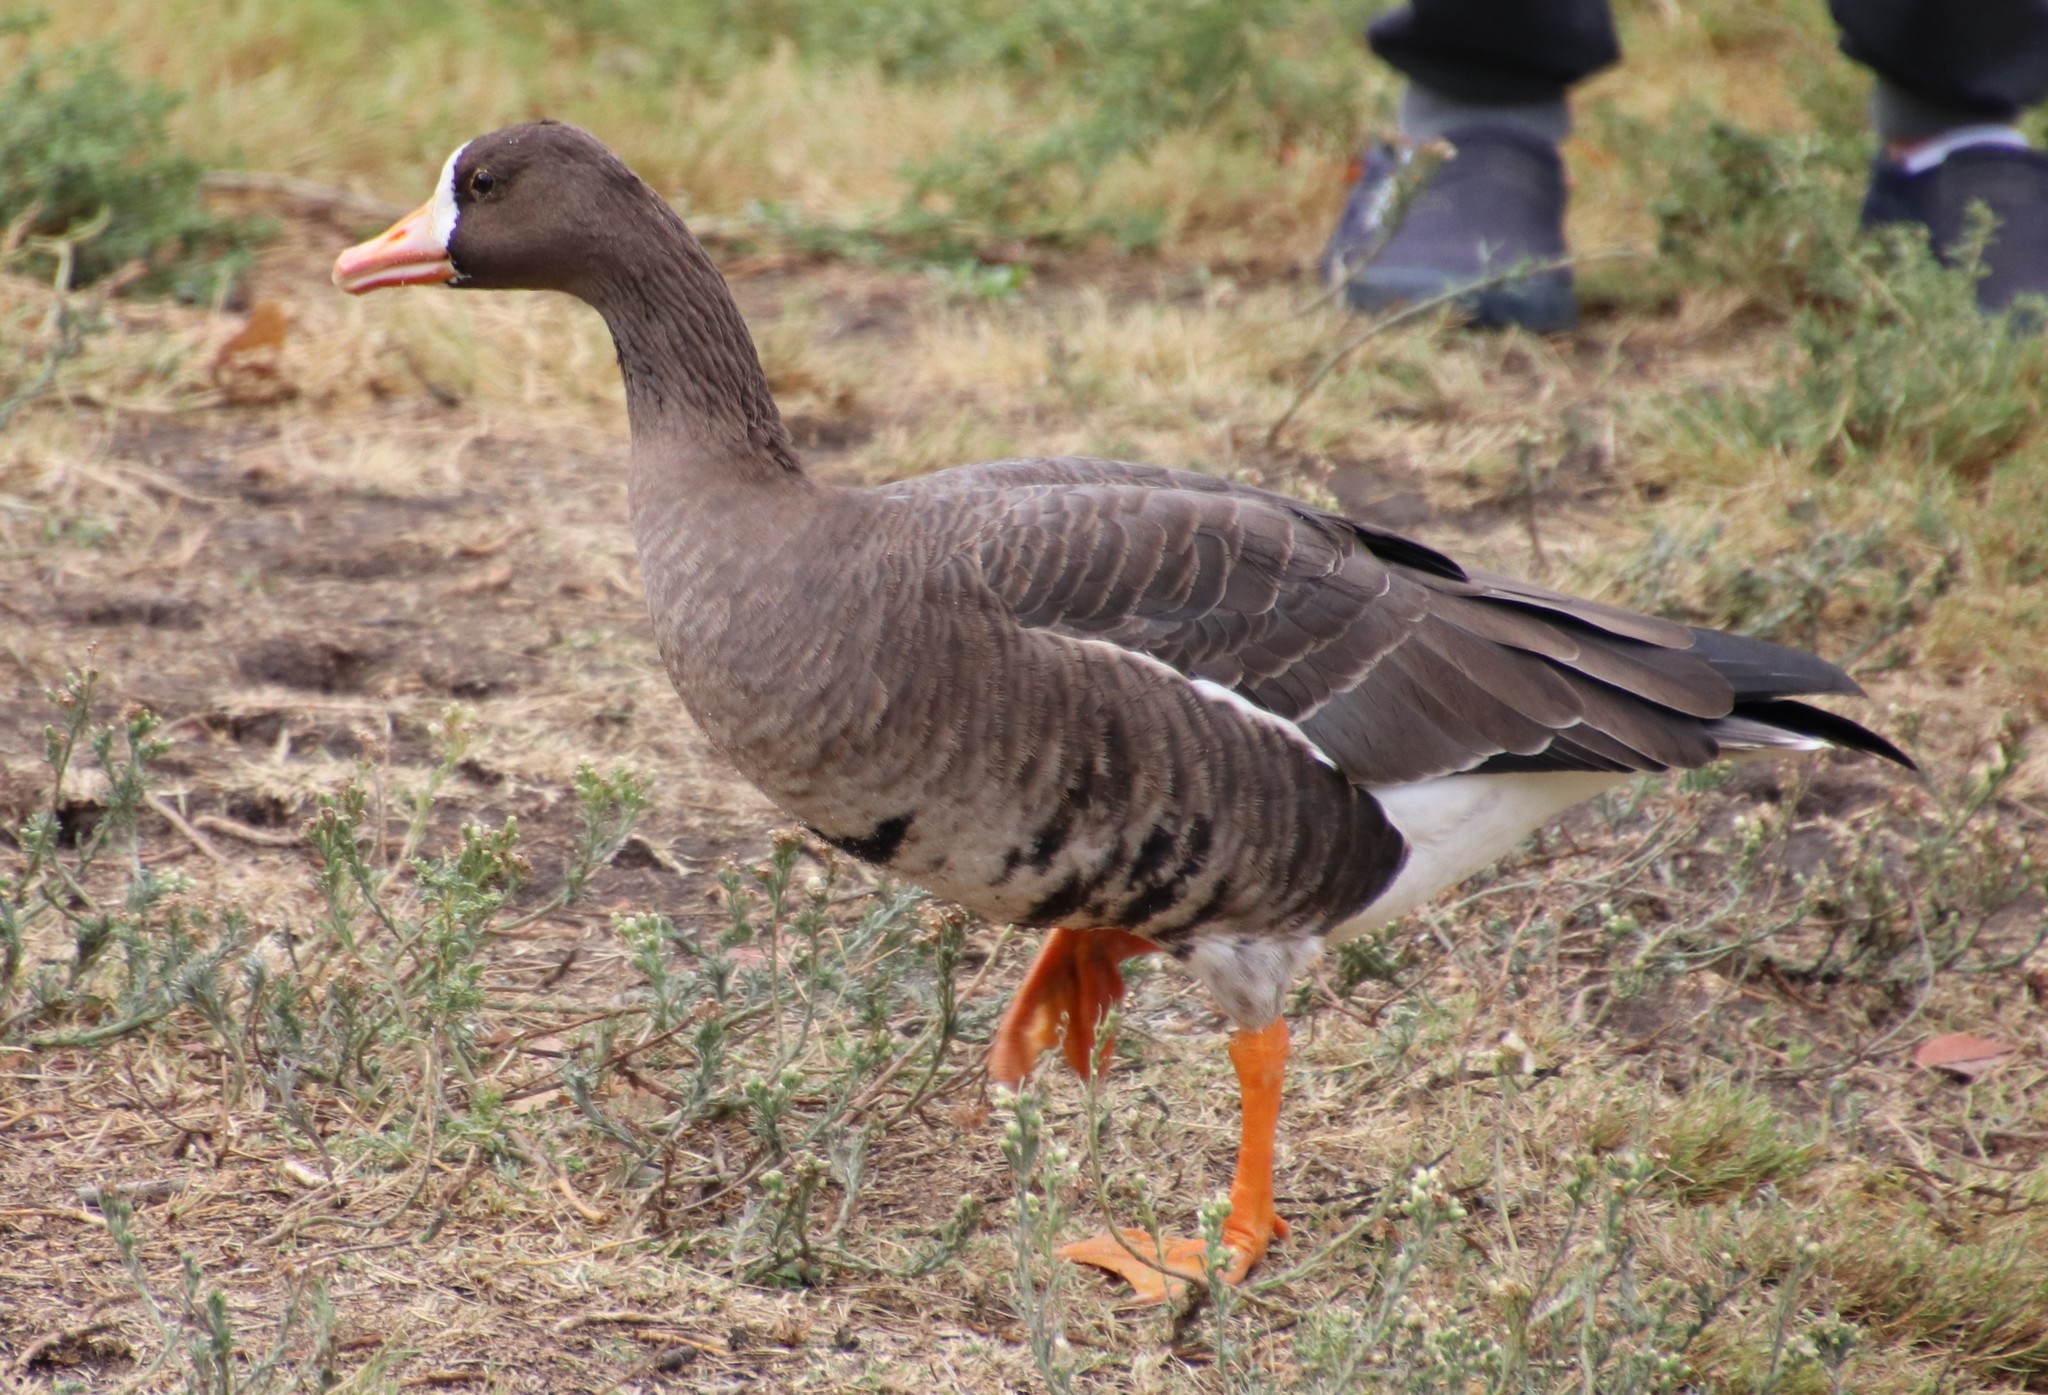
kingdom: Animalia
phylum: Chordata
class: Aves
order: Anseriformes
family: Anatidae
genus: Anser
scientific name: Anser albifrons
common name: Greater white-fronted goose
